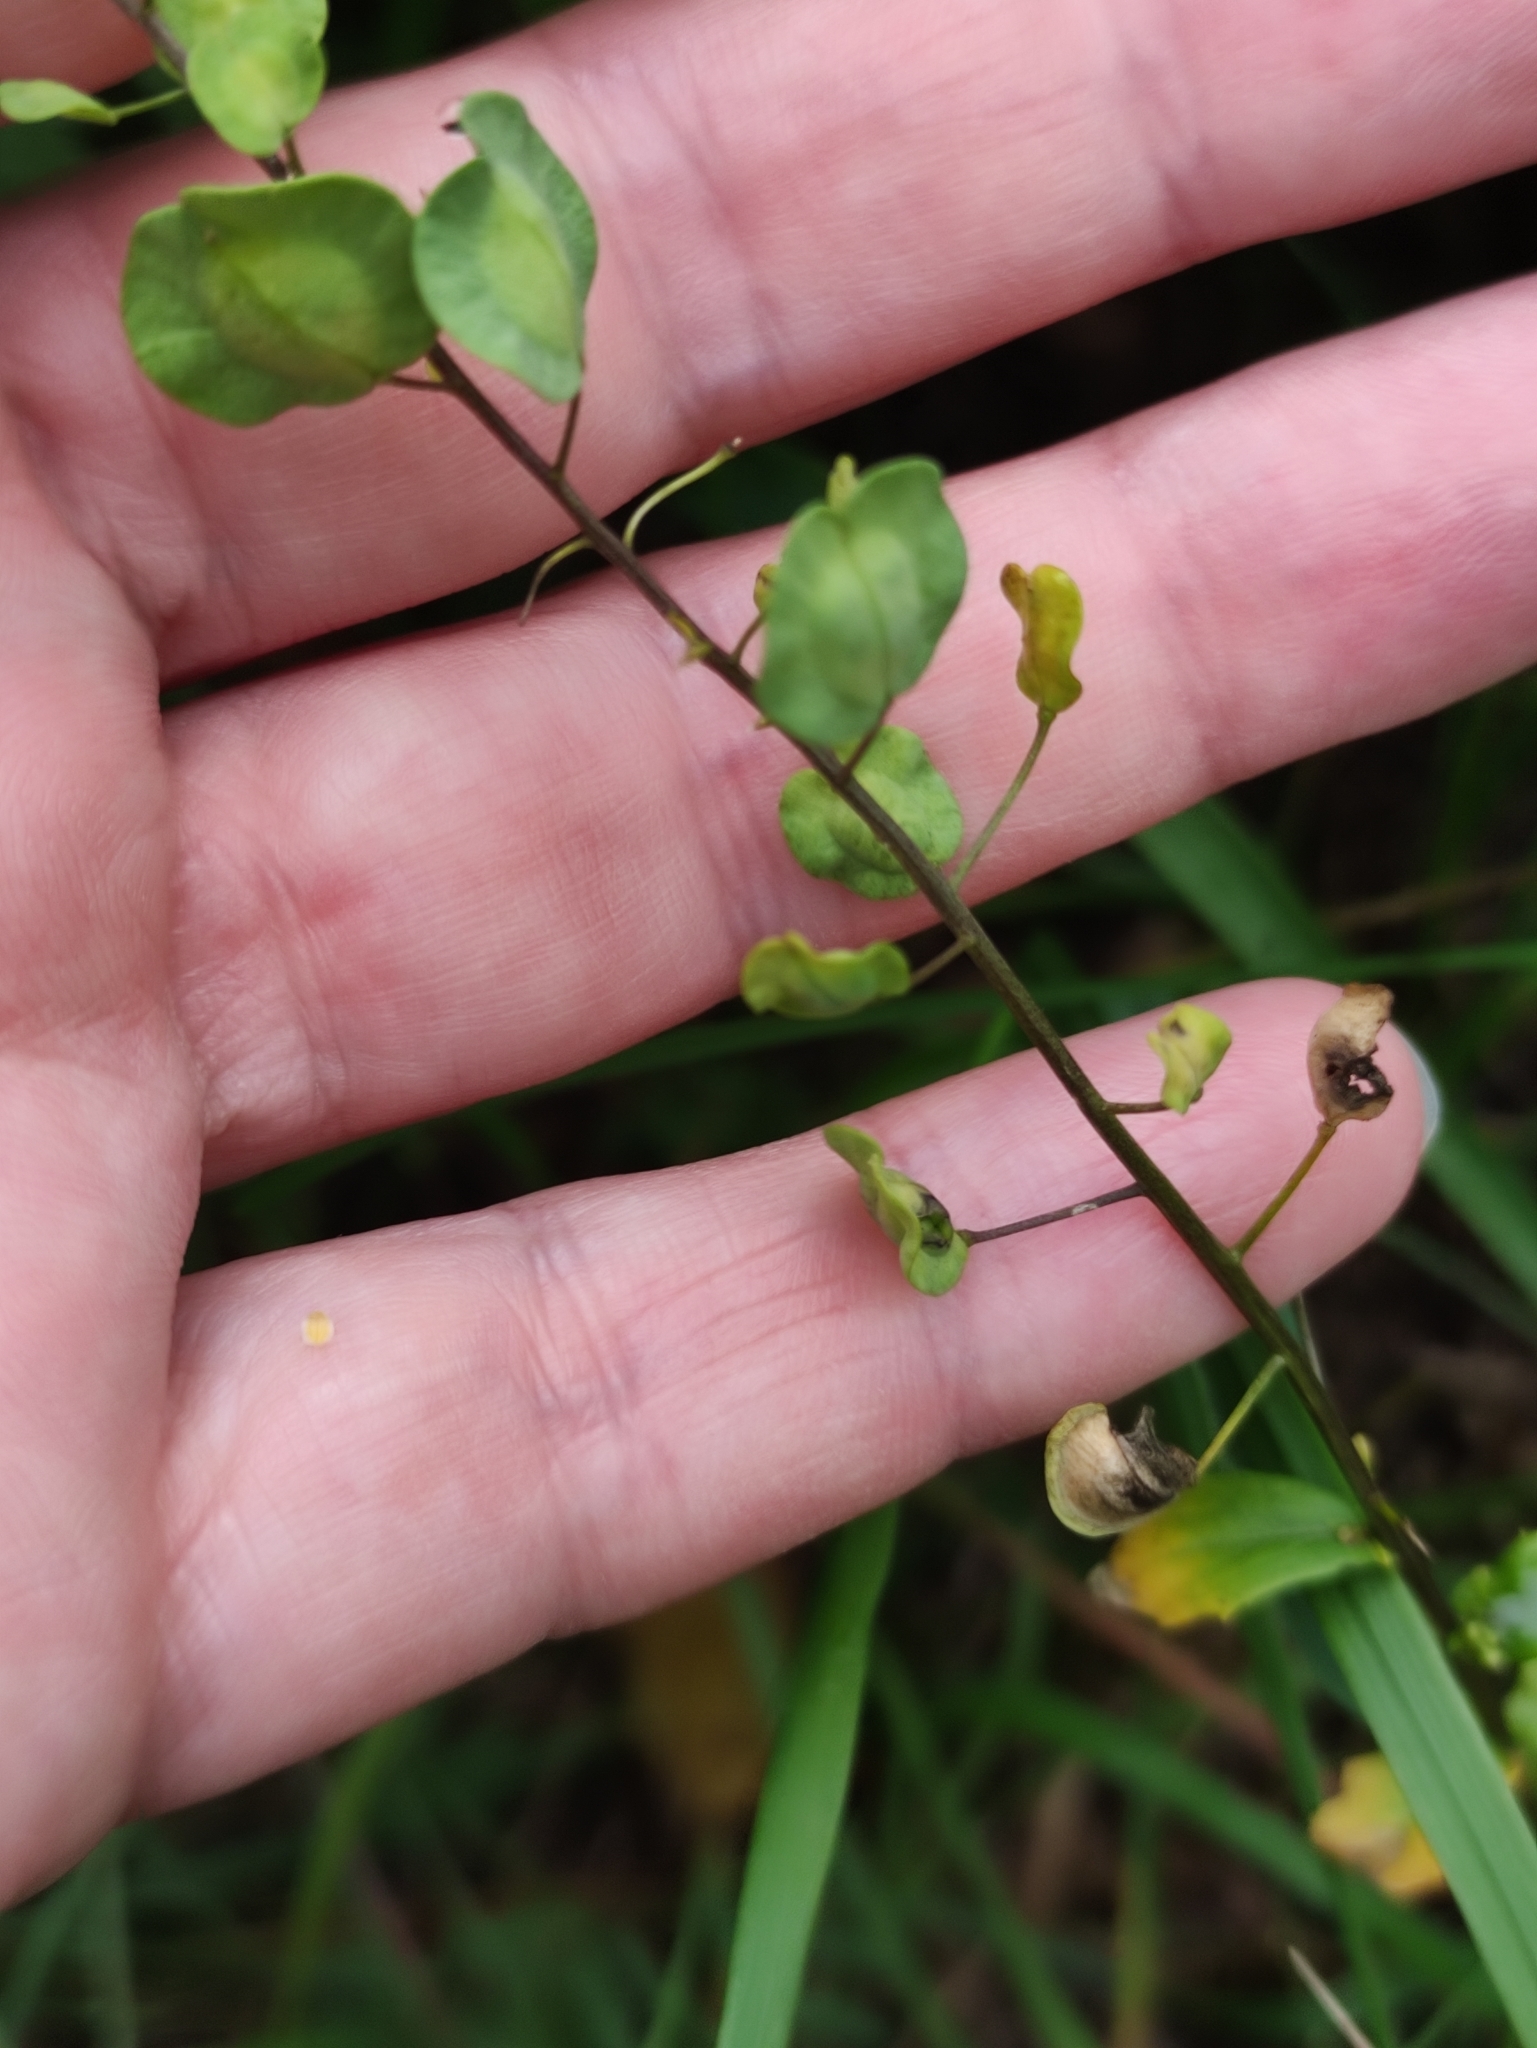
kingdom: Plantae
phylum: Tracheophyta
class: Magnoliopsida
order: Brassicales
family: Brassicaceae
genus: Thlaspi
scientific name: Thlaspi arvense
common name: Field pennycress
